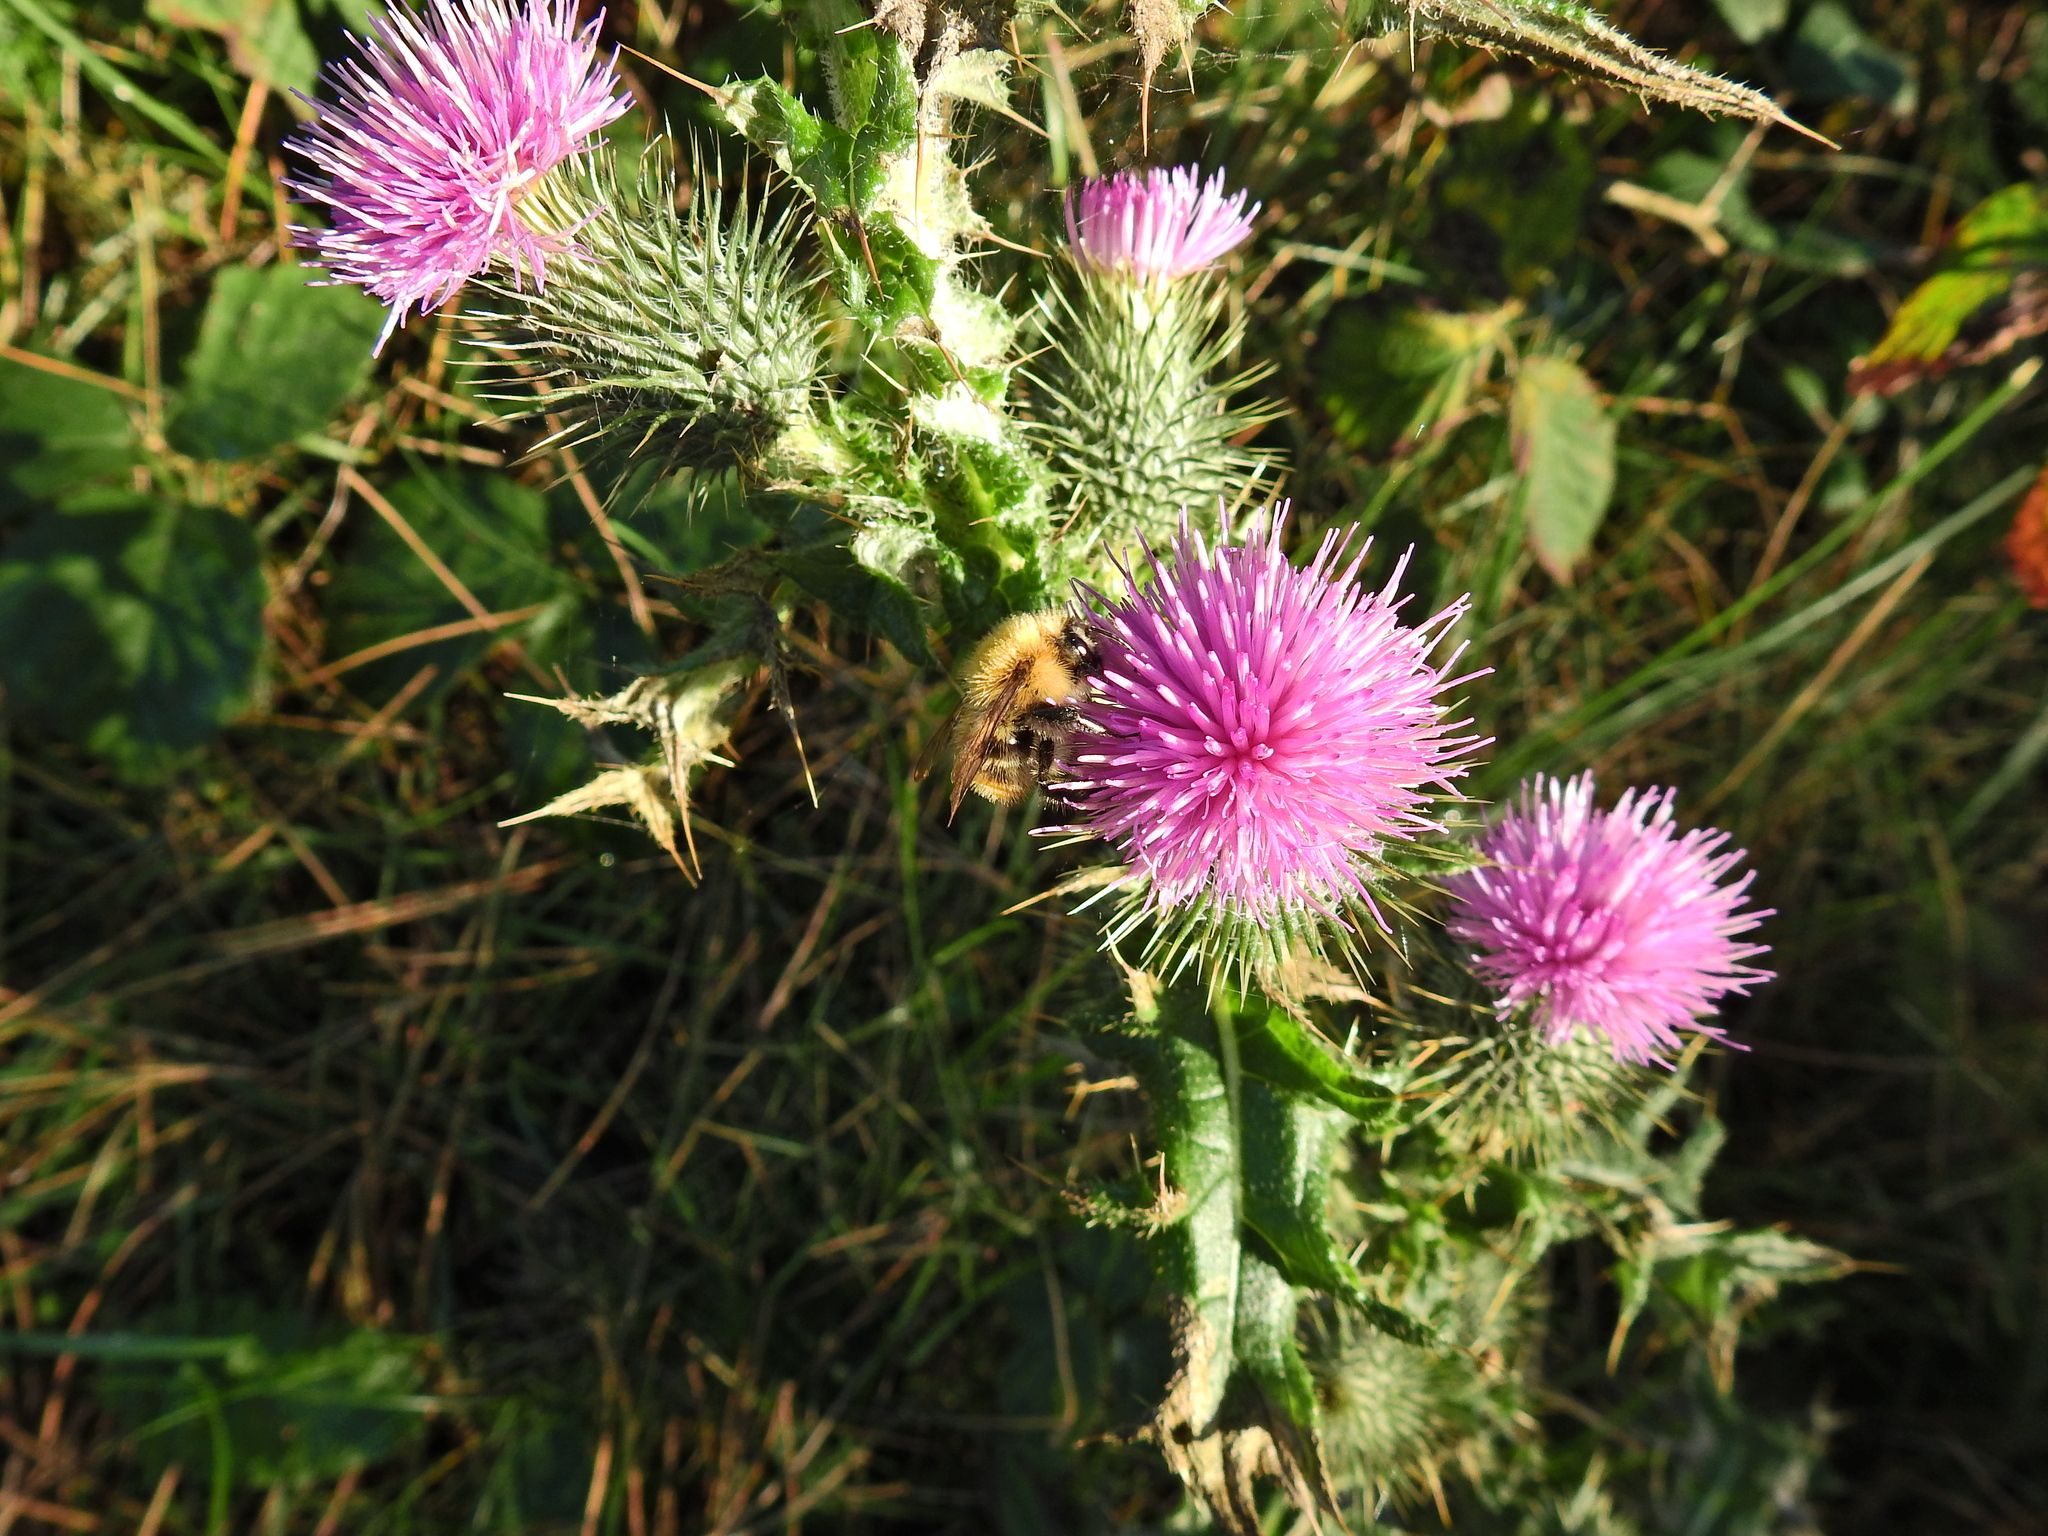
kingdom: Animalia
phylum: Arthropoda
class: Insecta
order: Hymenoptera
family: Apidae
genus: Bombus
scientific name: Bombus pascuorum
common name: Common carder bee
